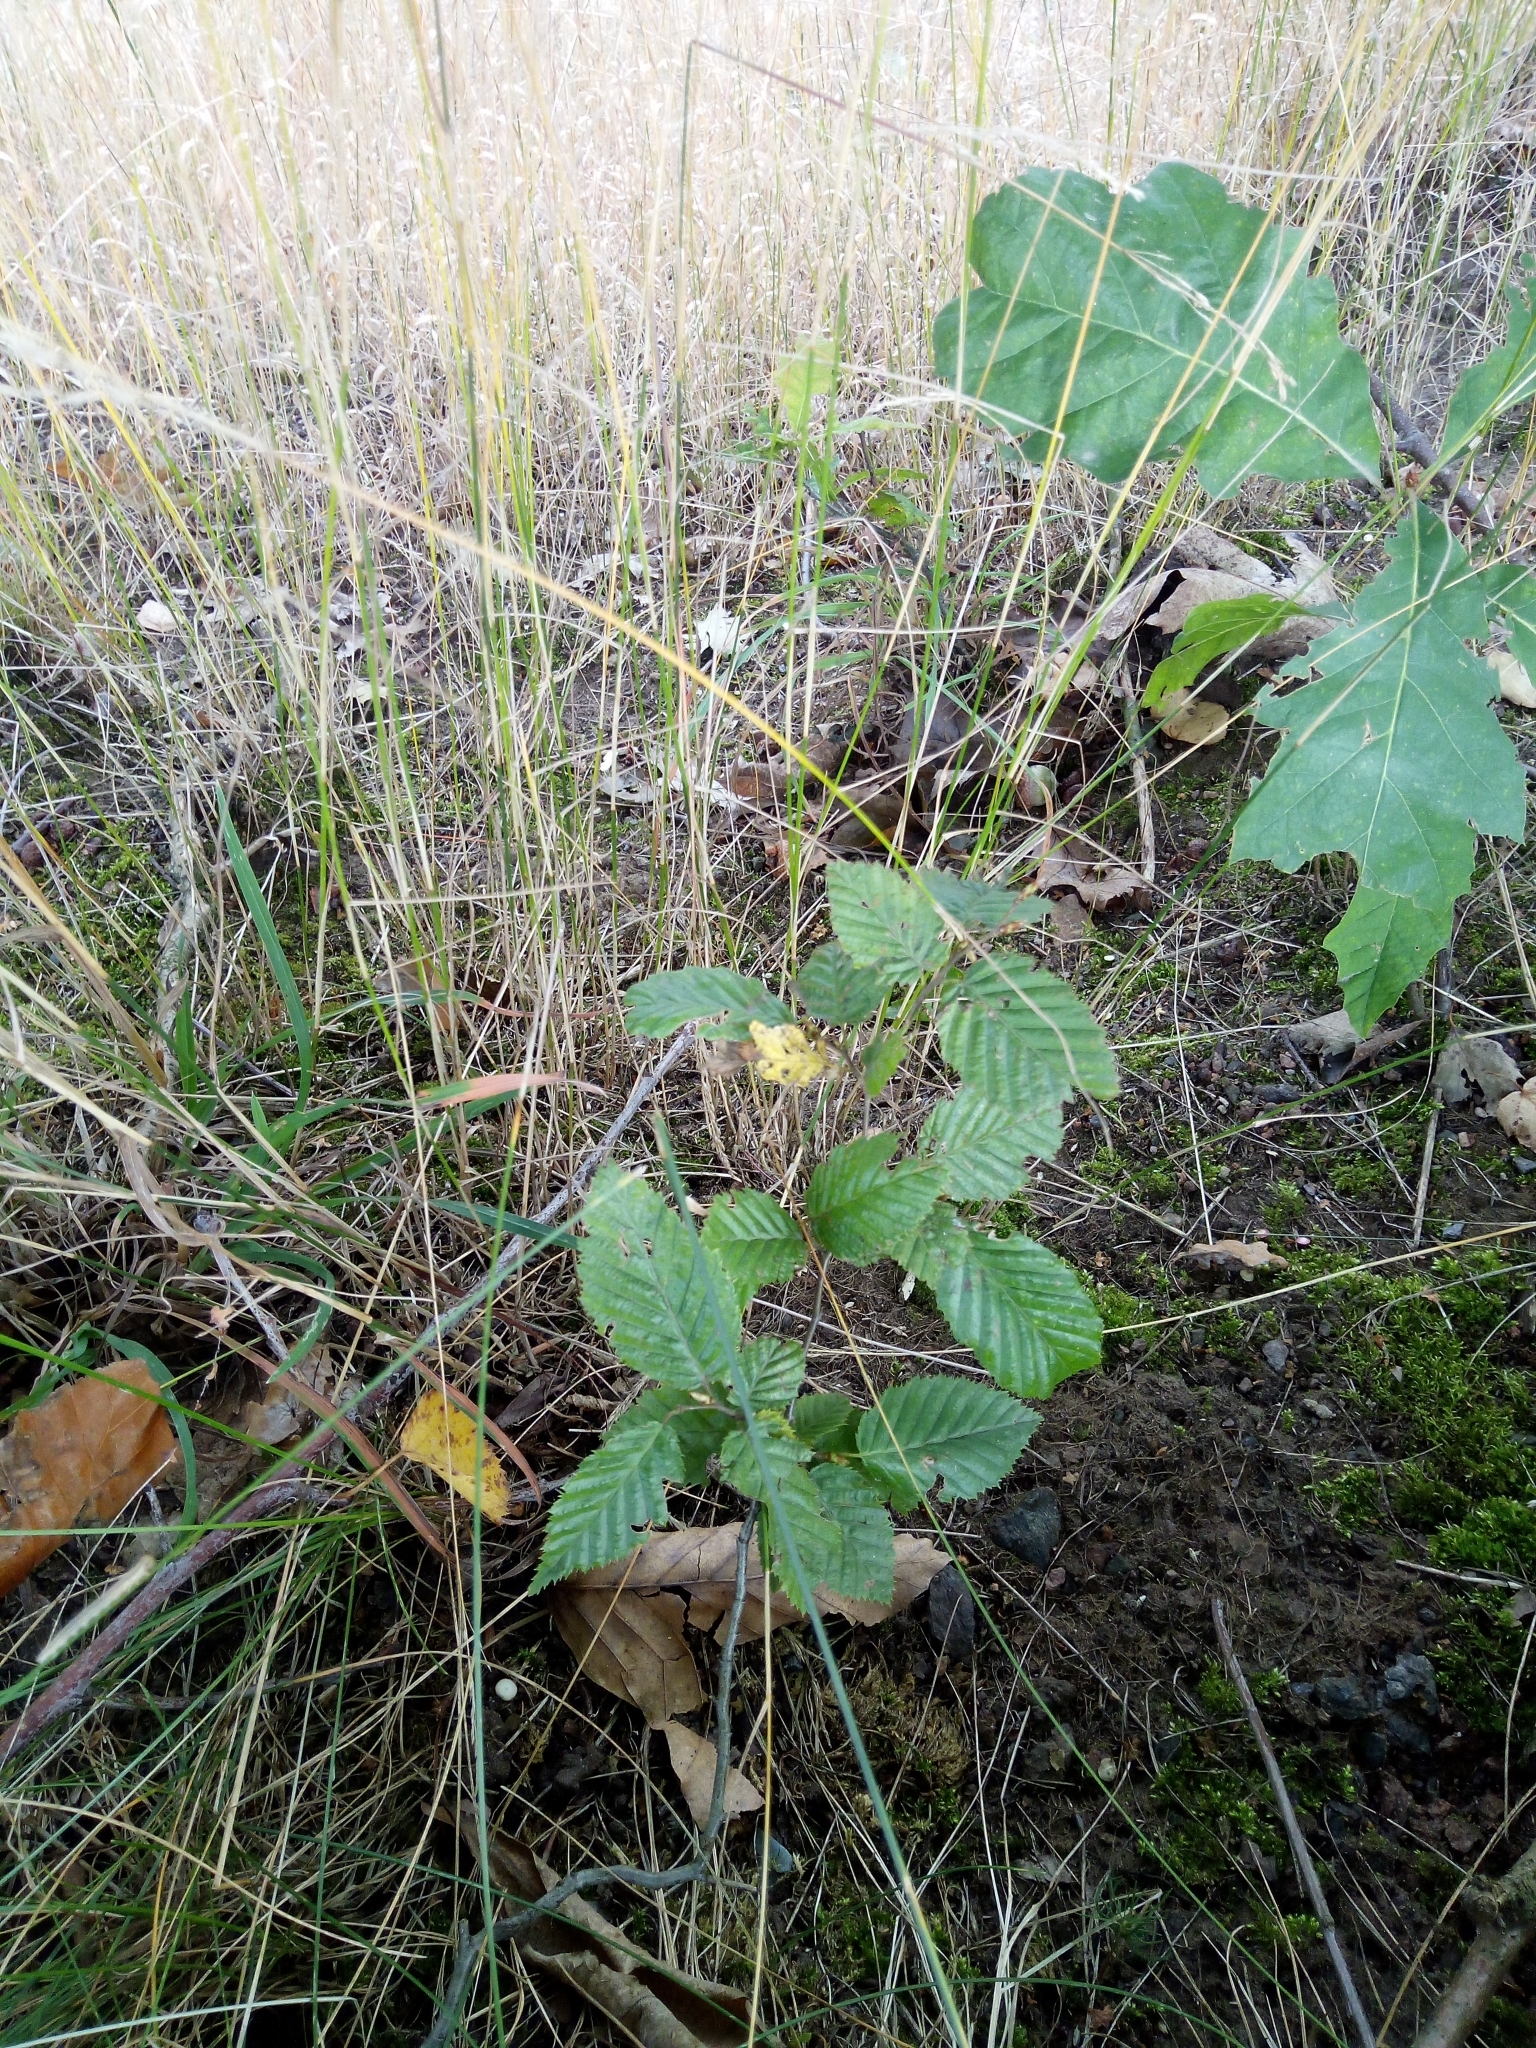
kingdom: Plantae
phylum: Tracheophyta
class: Magnoliopsida
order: Fagales
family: Betulaceae
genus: Carpinus
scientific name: Carpinus betulus
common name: Hornbeam
